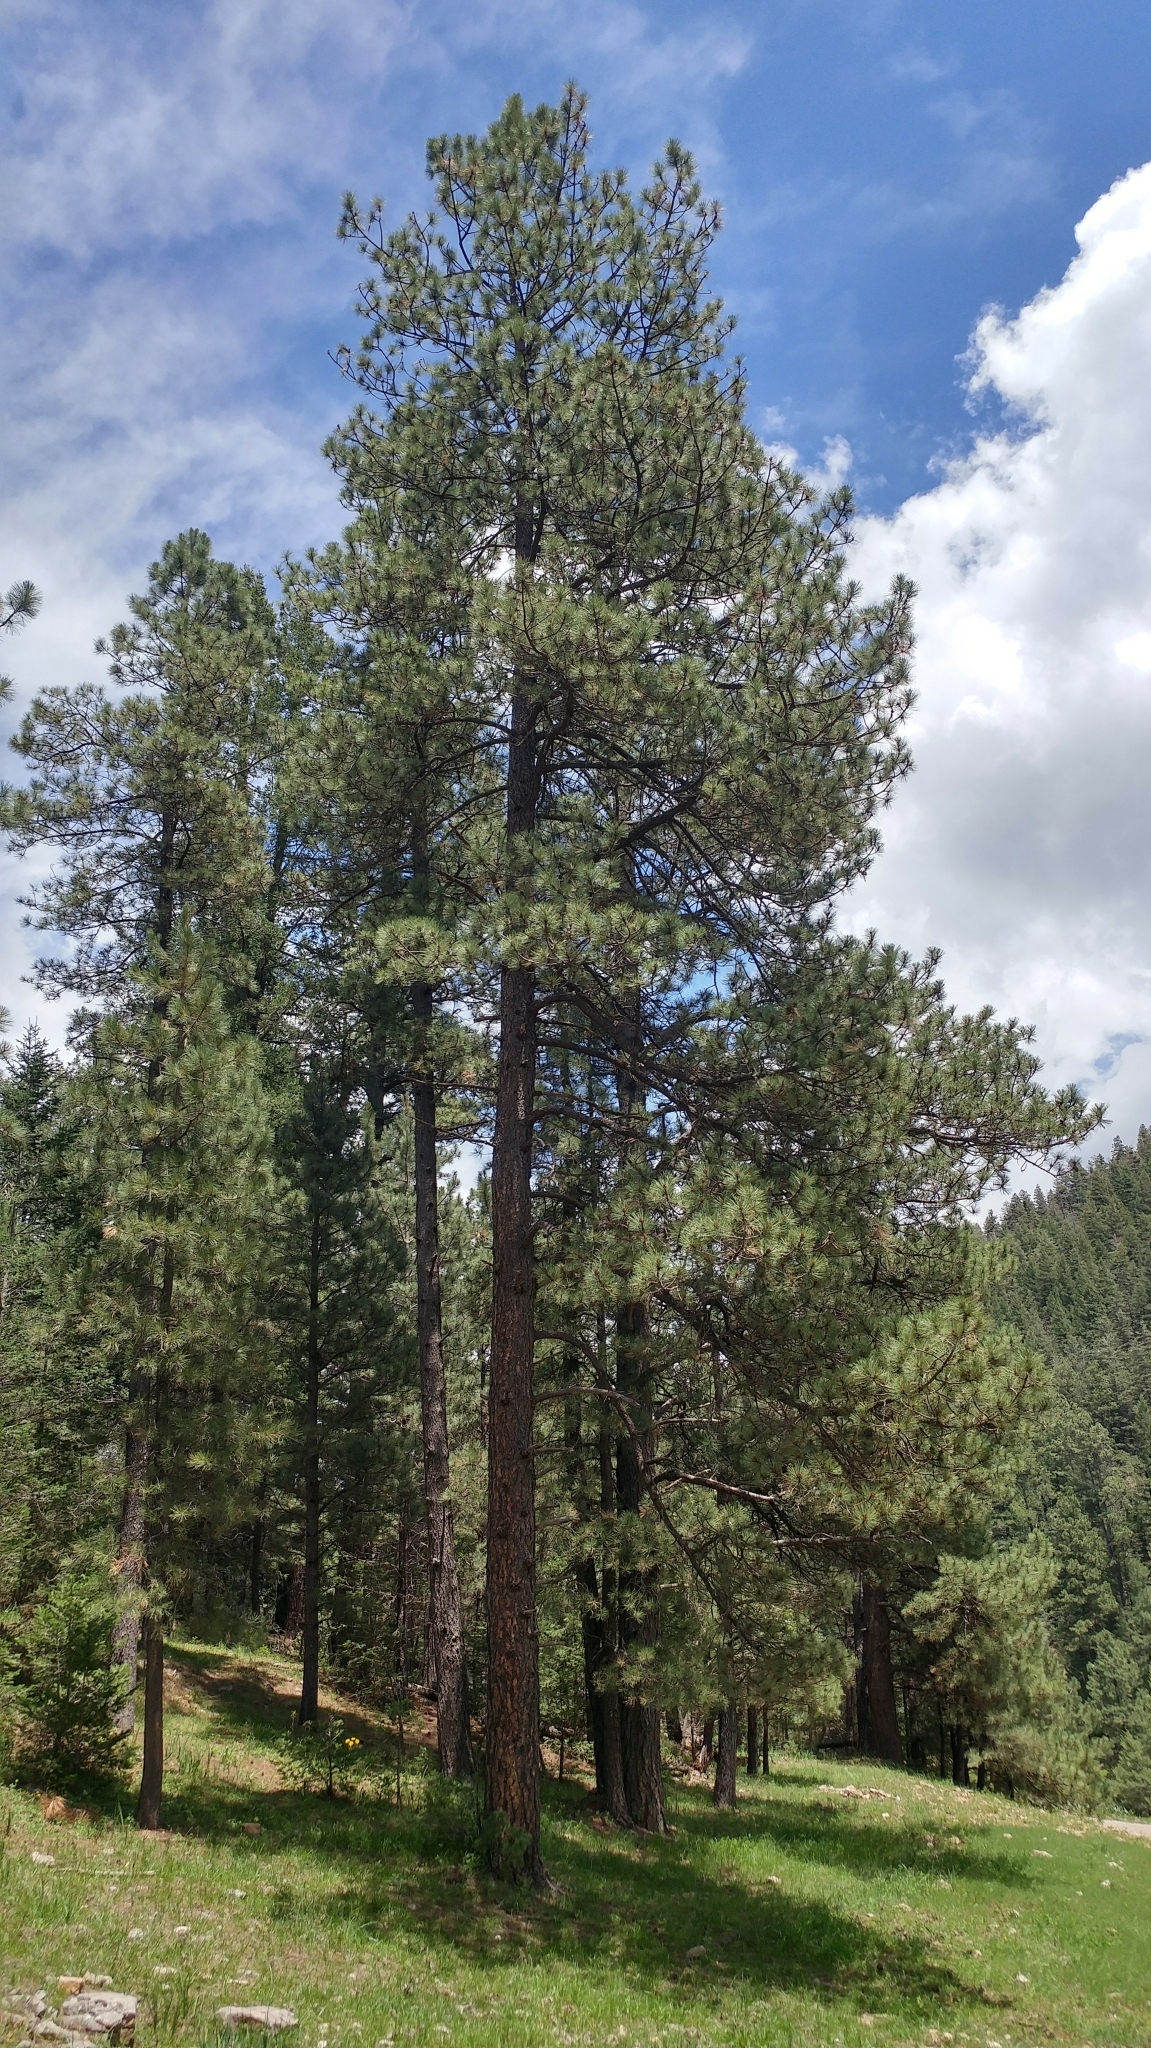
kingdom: Plantae
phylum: Tracheophyta
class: Pinopsida
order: Pinales
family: Pinaceae
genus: Pinus
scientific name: Pinus ponderosa
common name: Western yellow-pine
